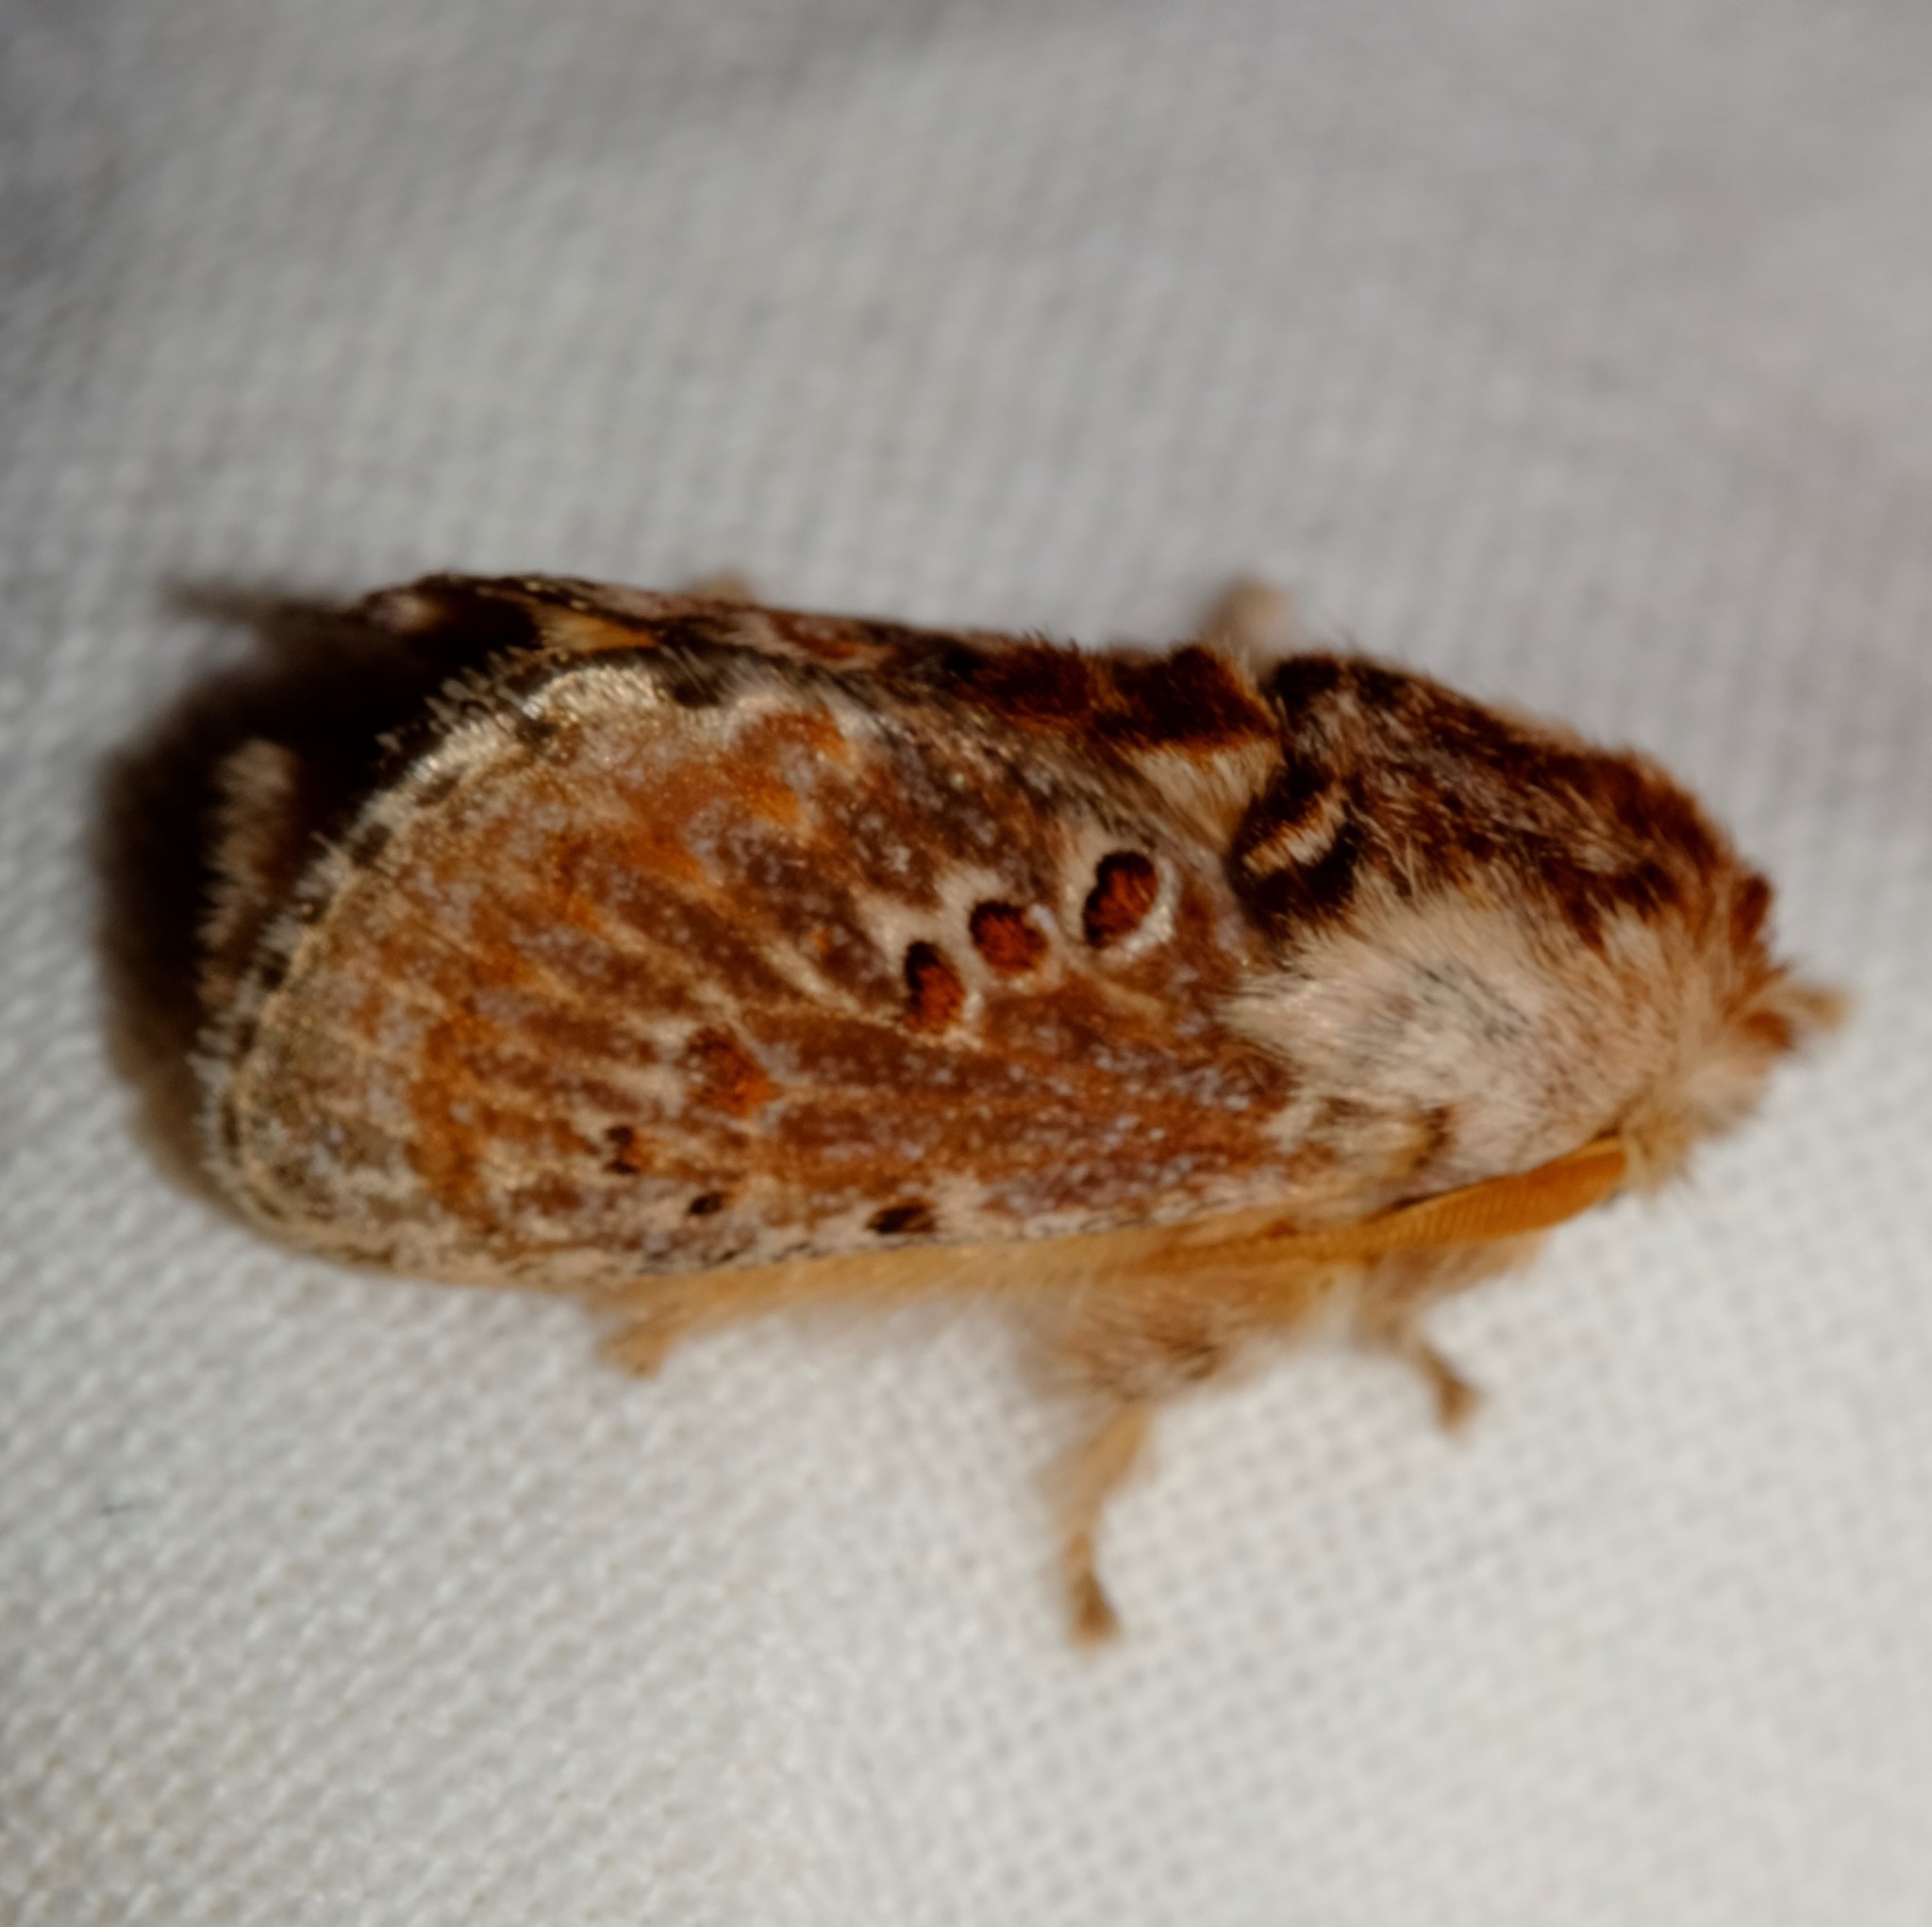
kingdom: Animalia
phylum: Arthropoda
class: Insecta
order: Lepidoptera
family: Limacodidae
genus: Pseudanapaea
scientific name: Pseudanapaea transvestita
